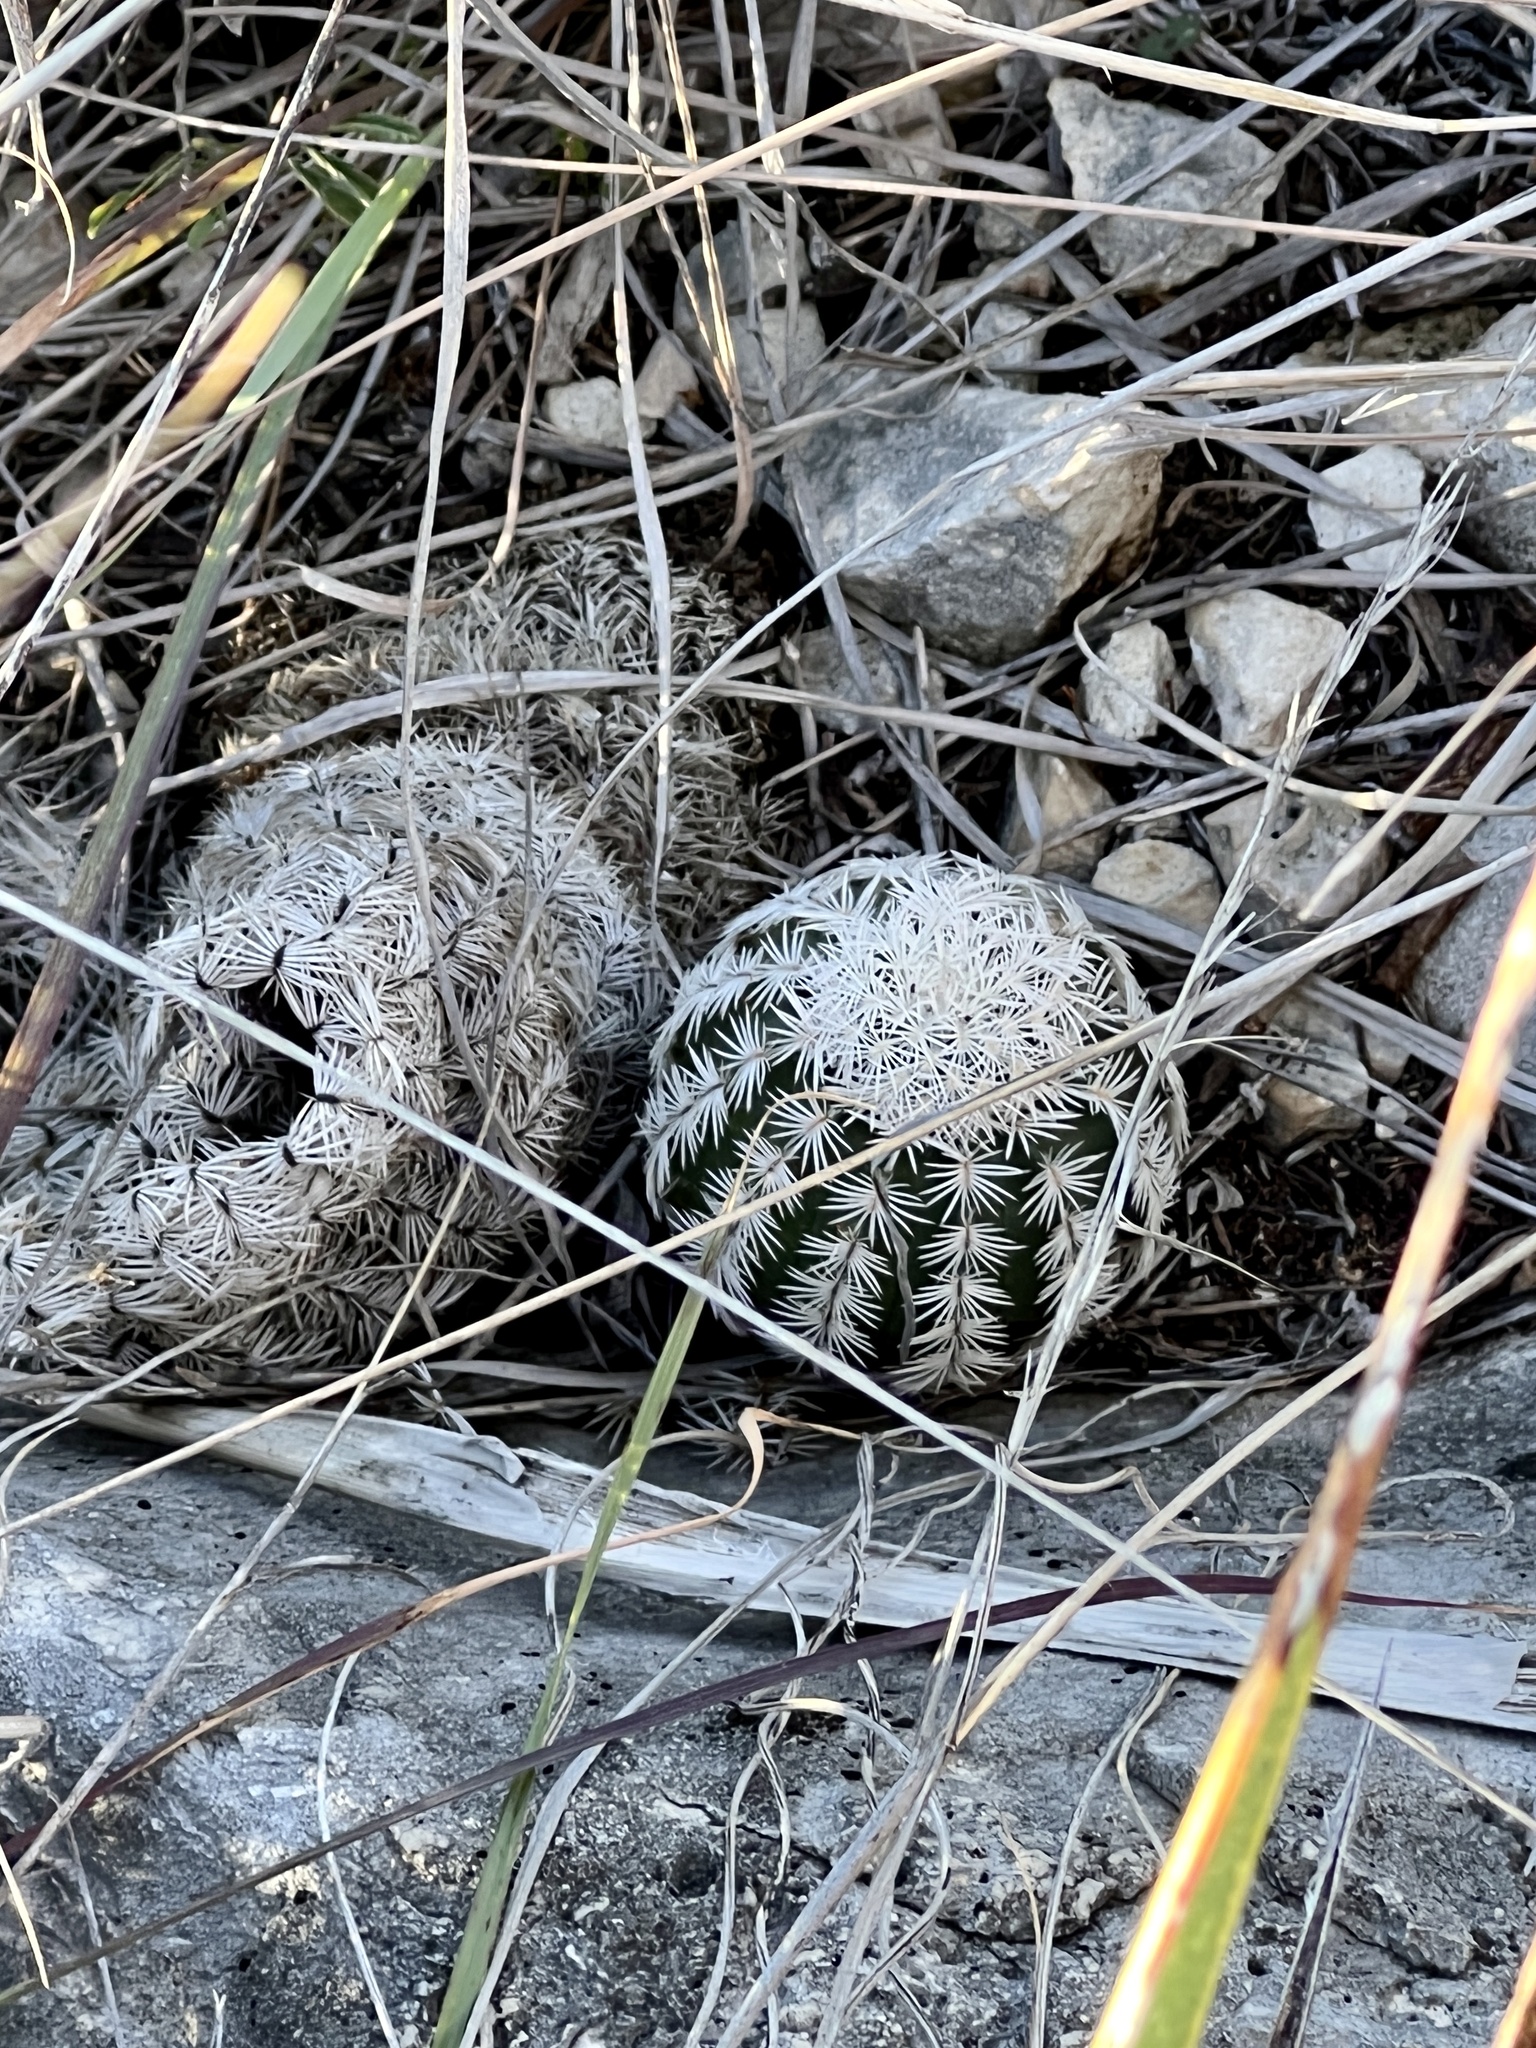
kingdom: Plantae
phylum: Tracheophyta
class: Magnoliopsida
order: Caryophyllales
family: Cactaceae
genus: Echinocereus
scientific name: Echinocereus reichenbachii
